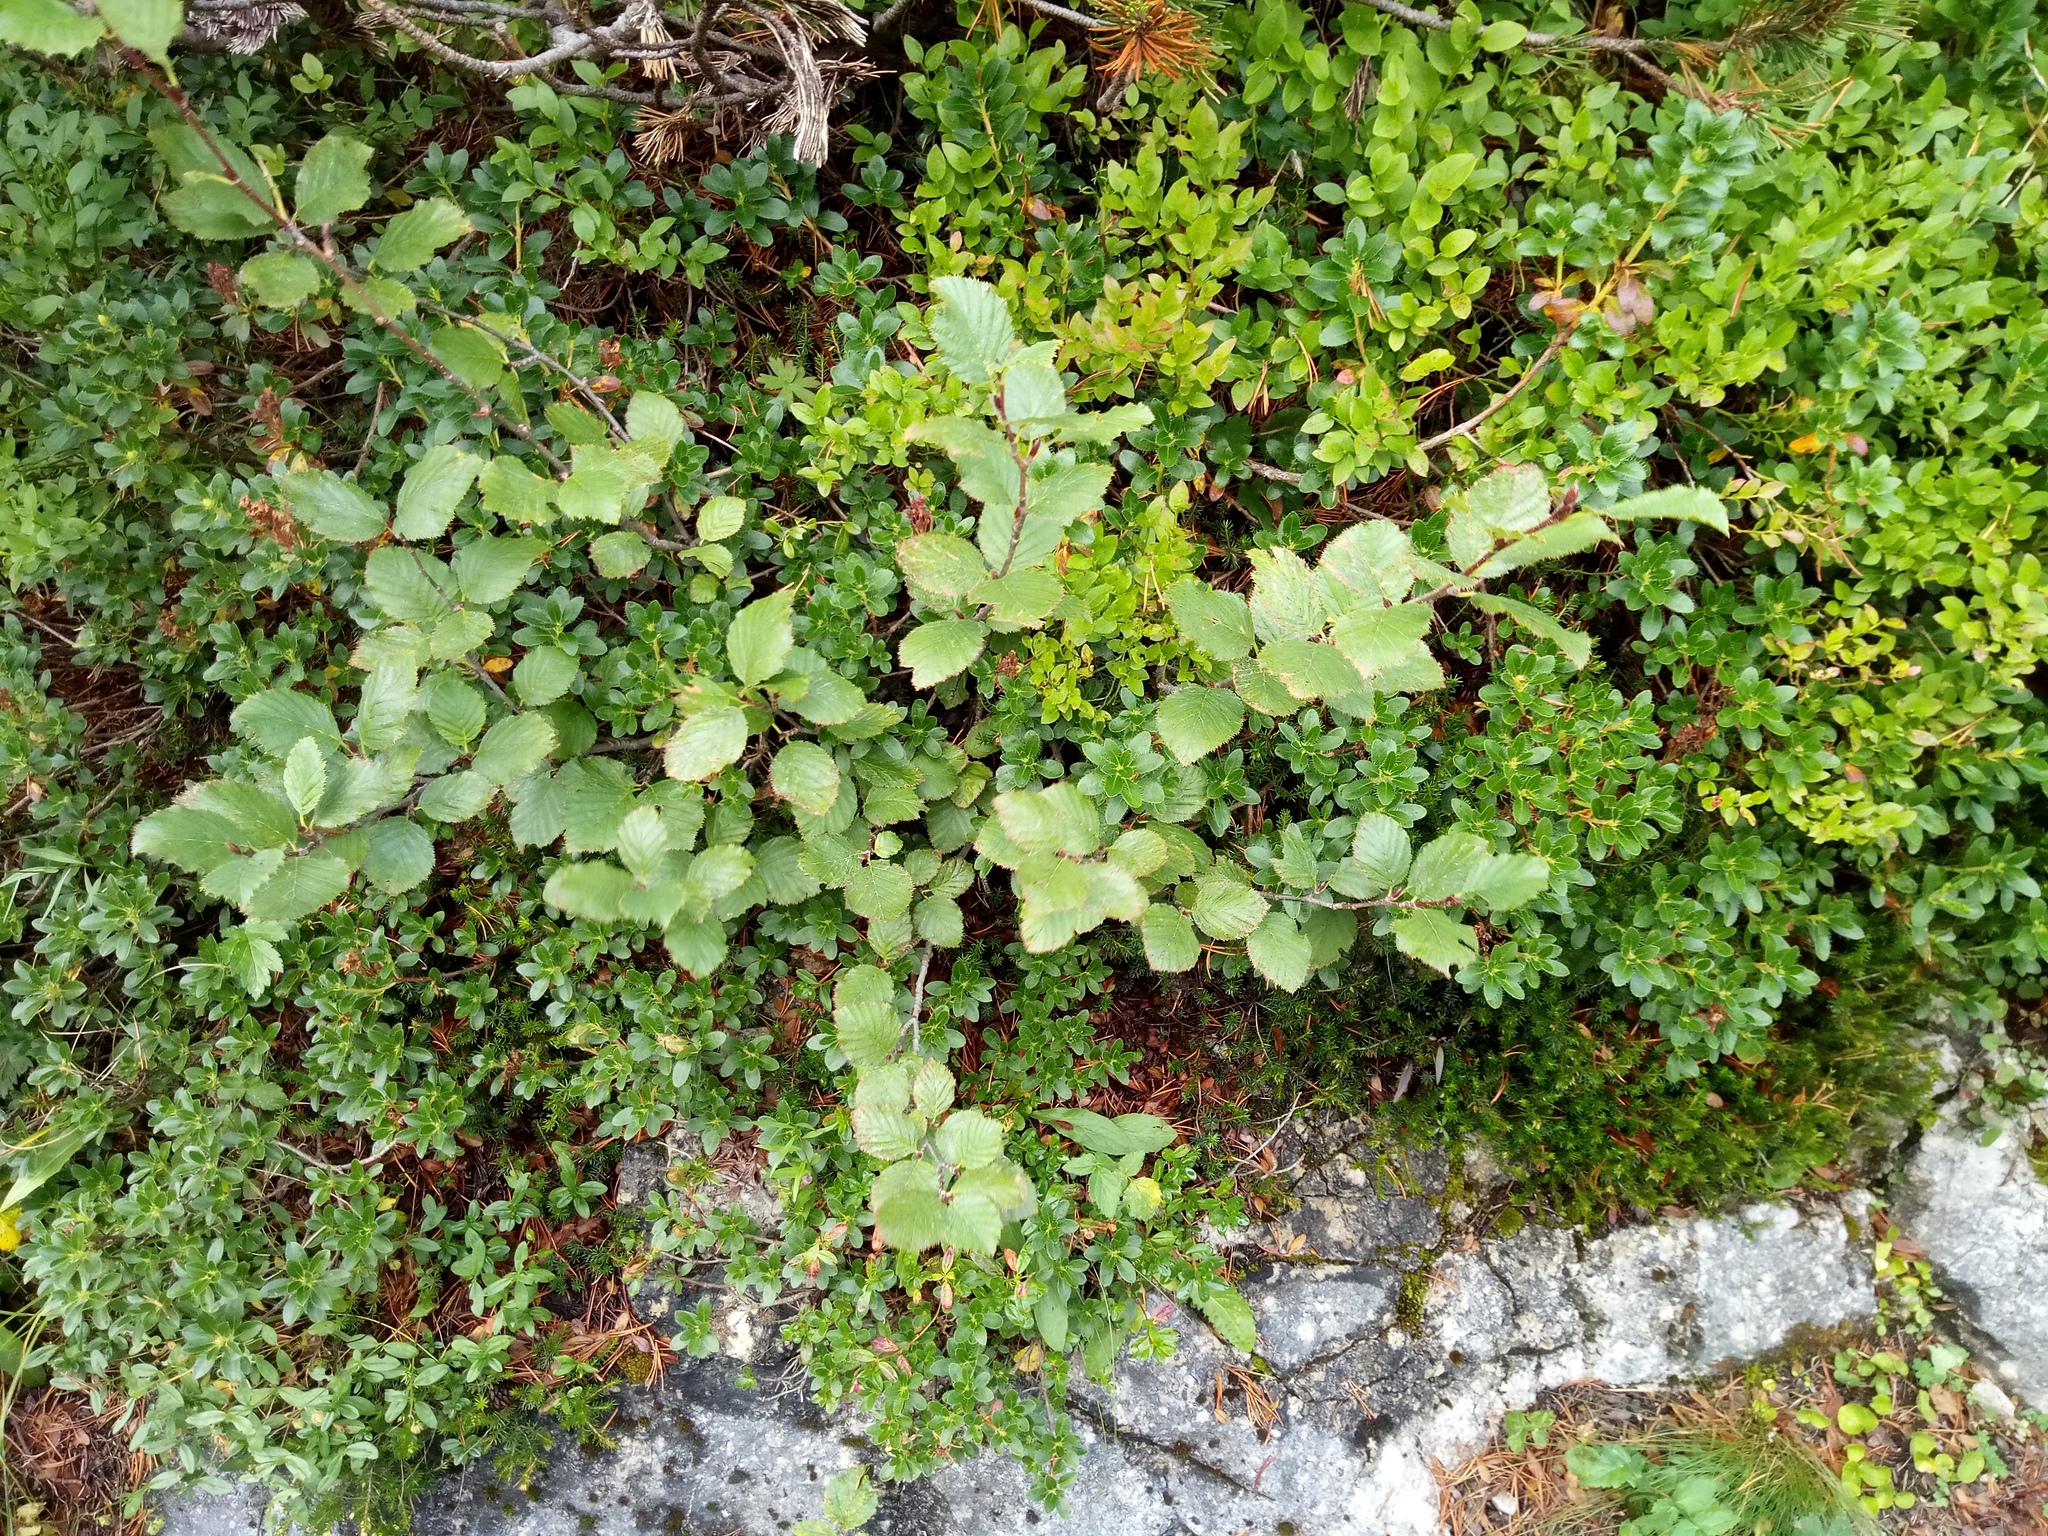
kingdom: Plantae
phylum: Tracheophyta
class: Magnoliopsida
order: Fagales
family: Betulaceae
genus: Alnus
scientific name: Alnus alnobetula
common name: Green alder
